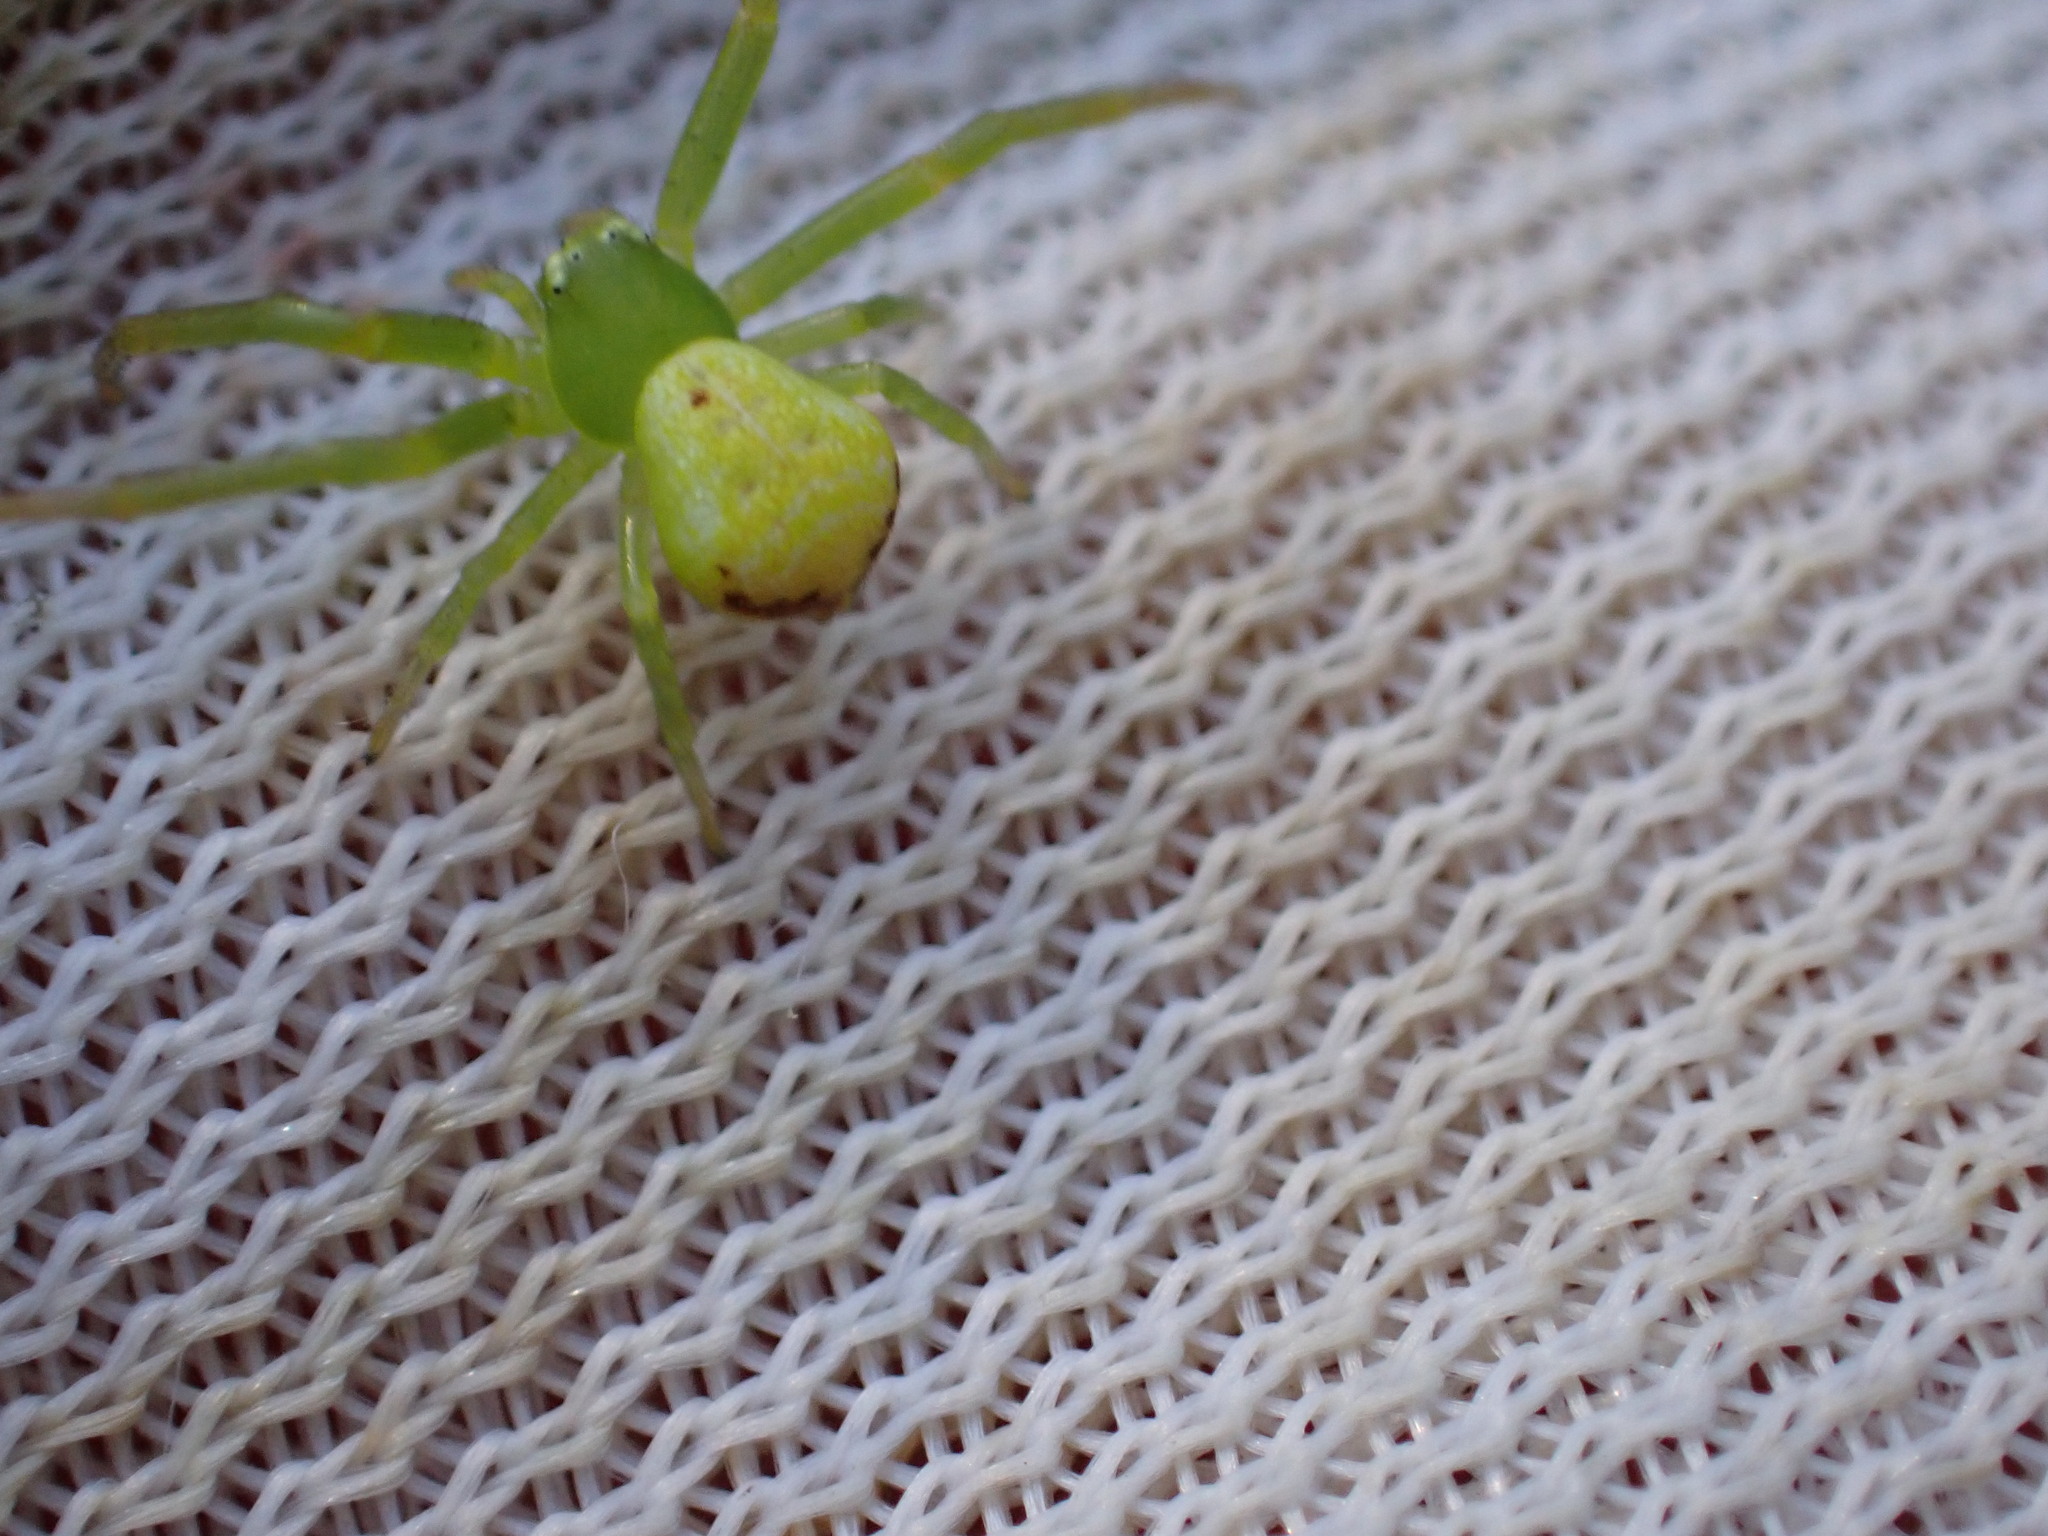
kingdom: Animalia
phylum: Arthropoda
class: Arachnida
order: Araneae
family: Thomisidae
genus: Ebrechtella
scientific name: Ebrechtella tricuspidata
